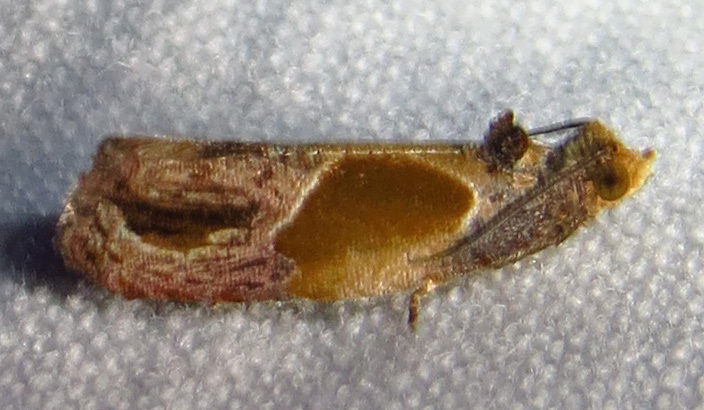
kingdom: Animalia
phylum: Arthropoda
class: Insecta
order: Lepidoptera
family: Tortricidae
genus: Eumarozia
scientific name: Eumarozia malachitana
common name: Sculptured moth
